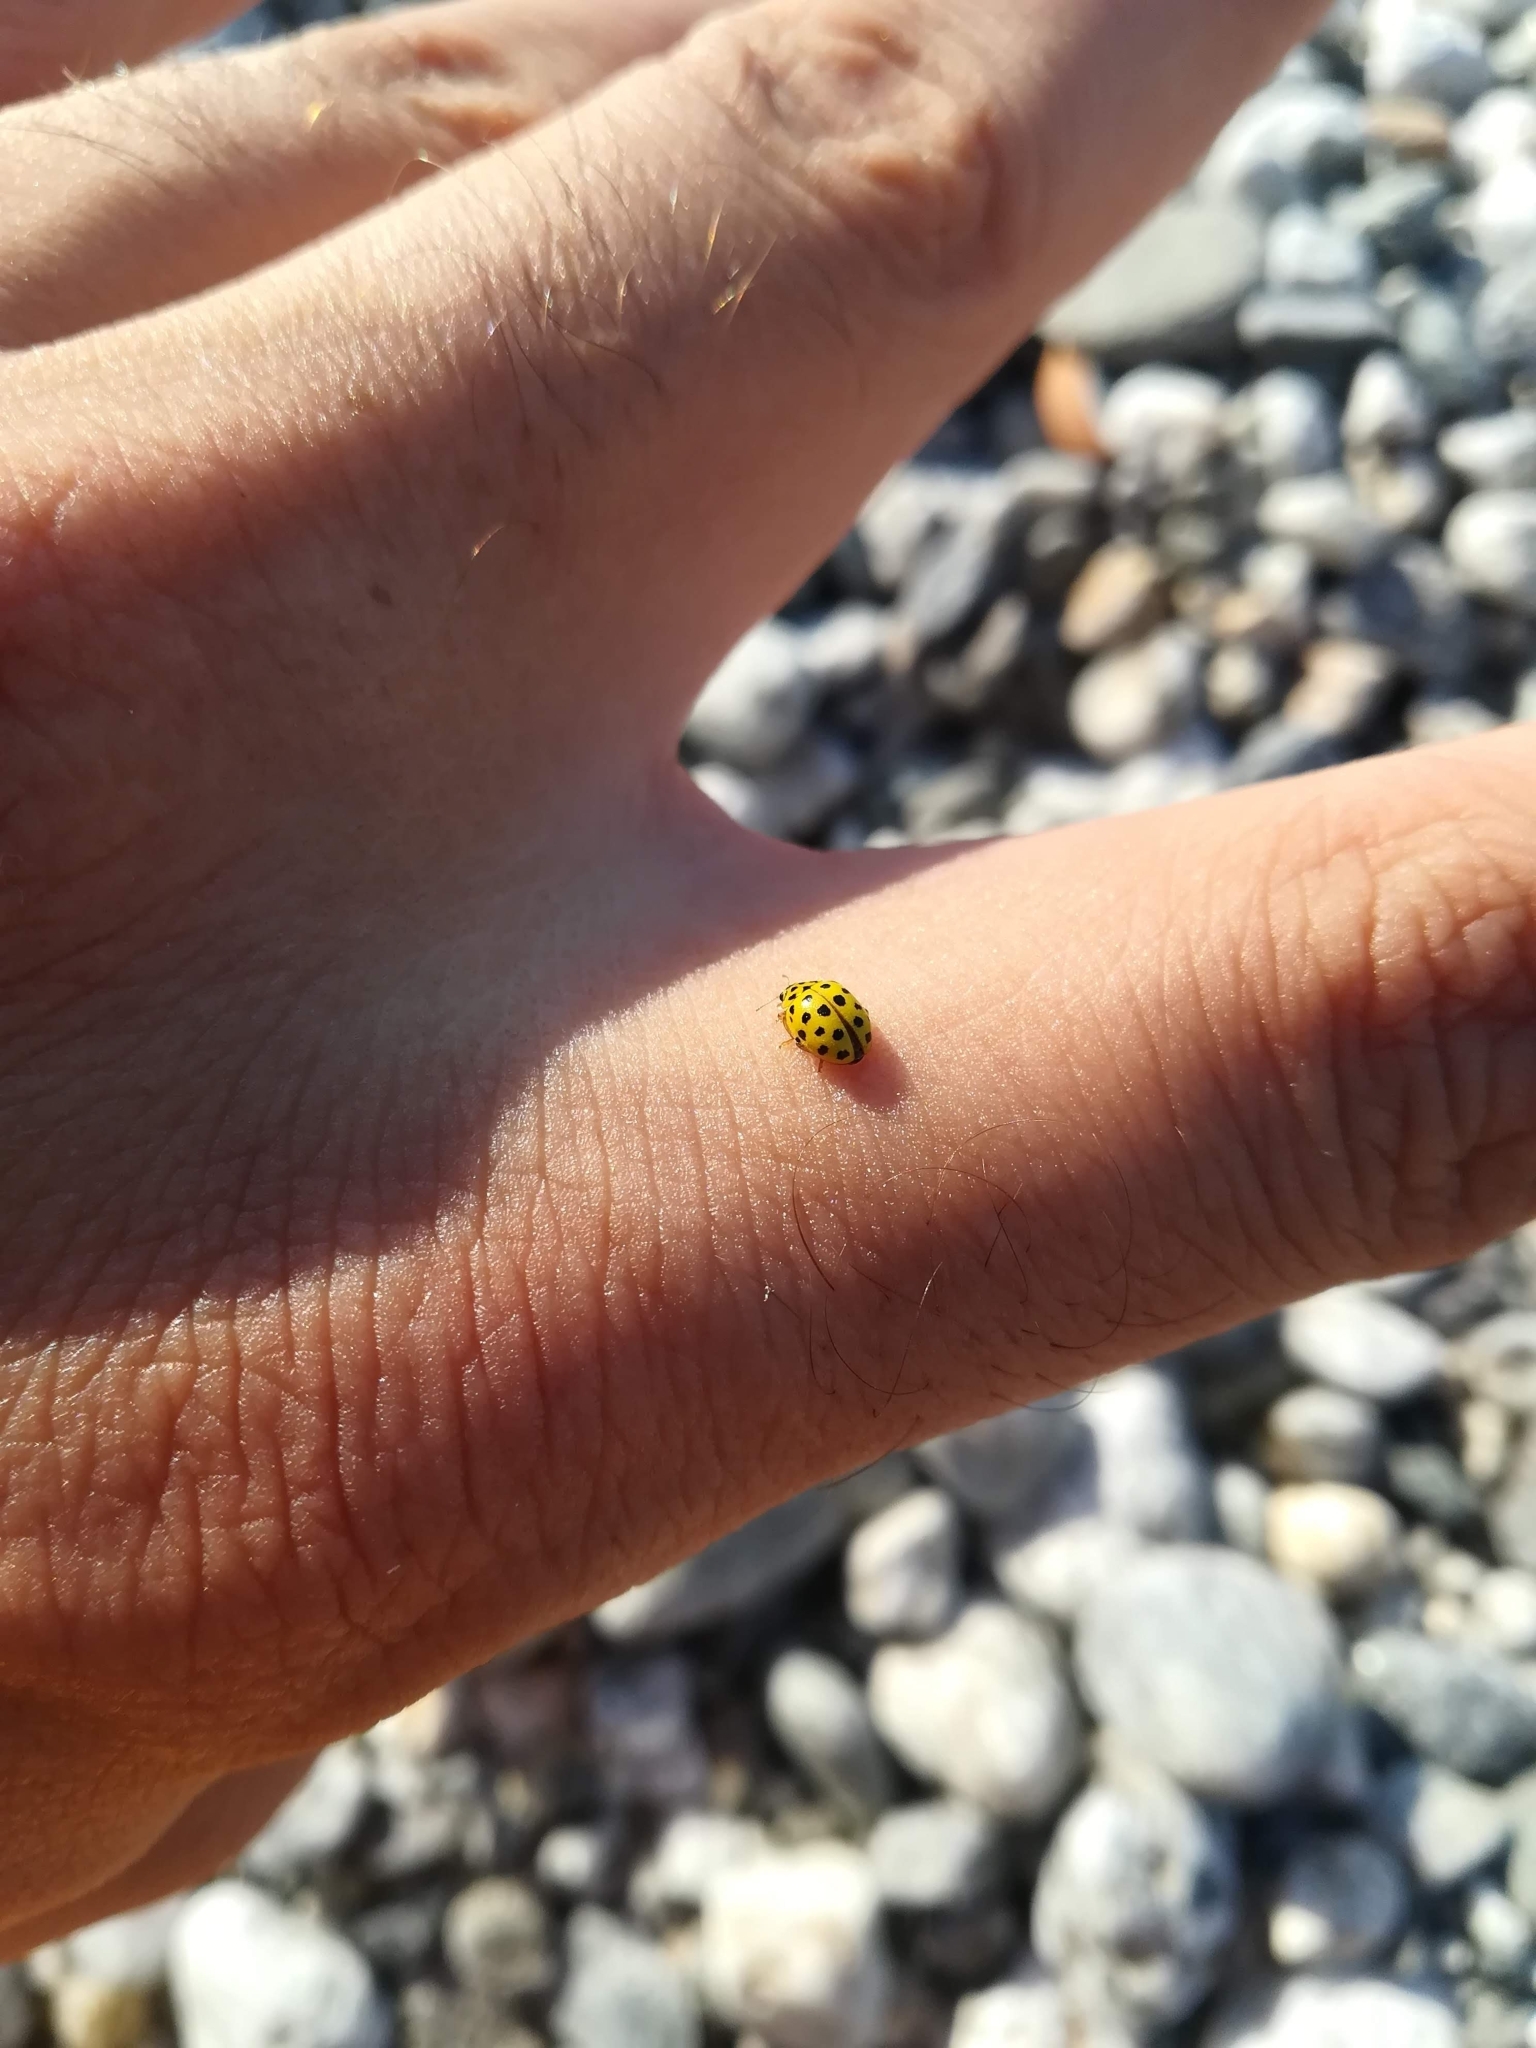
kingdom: Animalia
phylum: Arthropoda
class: Insecta
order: Coleoptera
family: Coccinellidae
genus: Psyllobora
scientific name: Psyllobora vigintiduopunctata
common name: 22-spot ladybird
